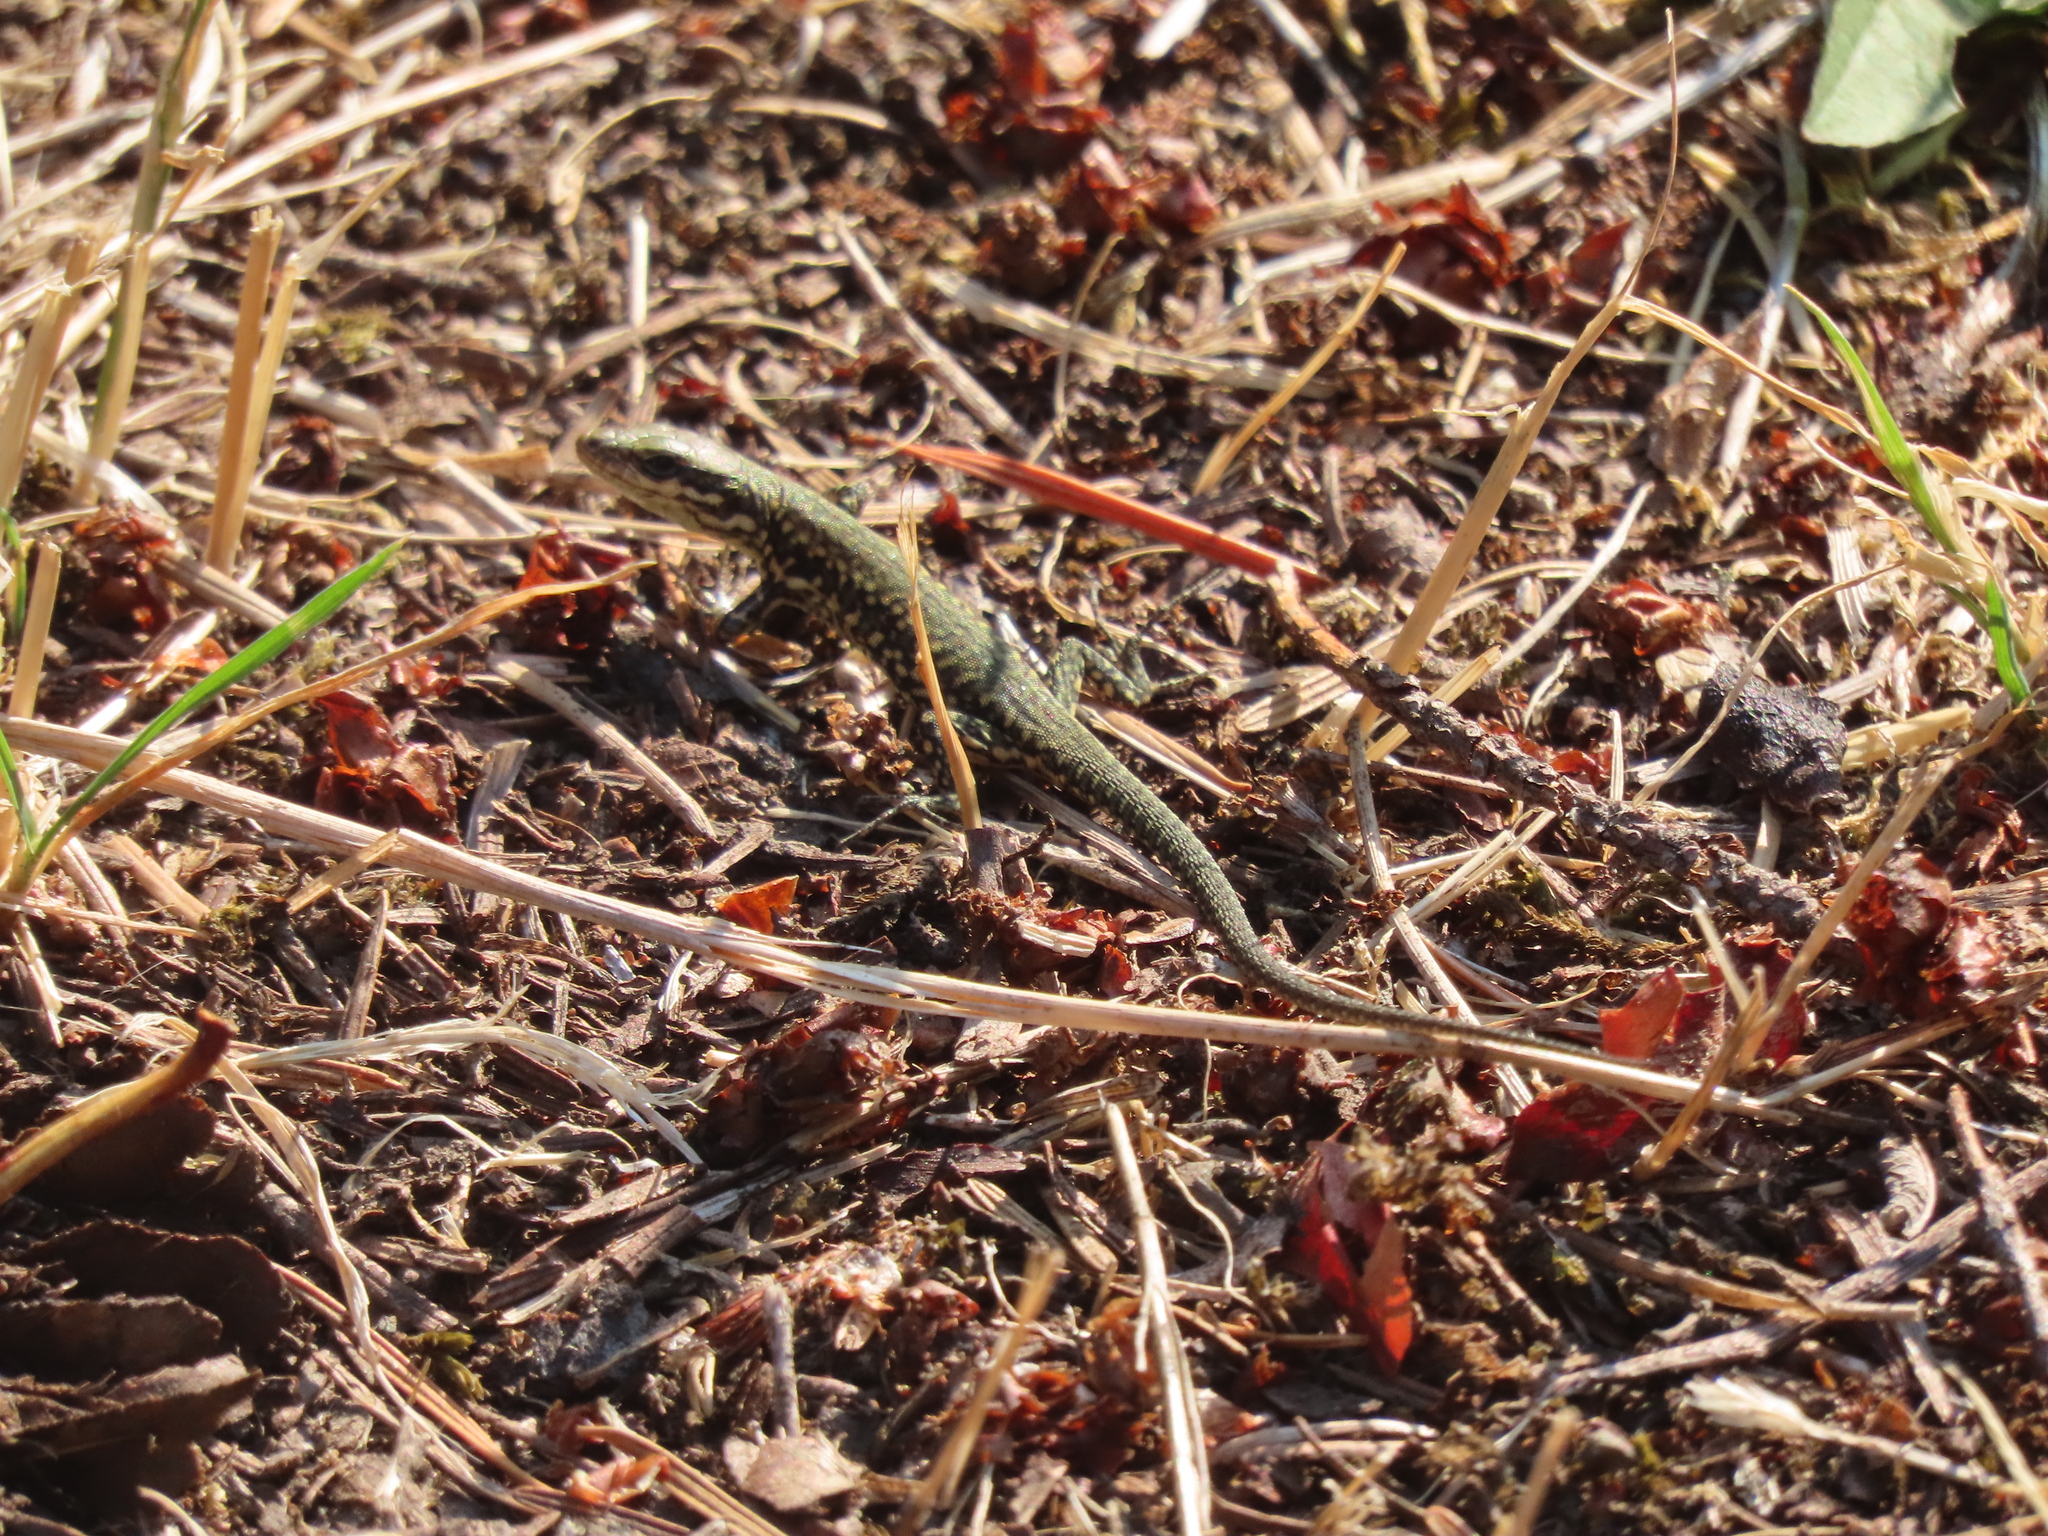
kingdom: Animalia
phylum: Chordata
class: Squamata
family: Lacertidae
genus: Podarcis
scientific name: Podarcis muralis
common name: Common wall lizard
